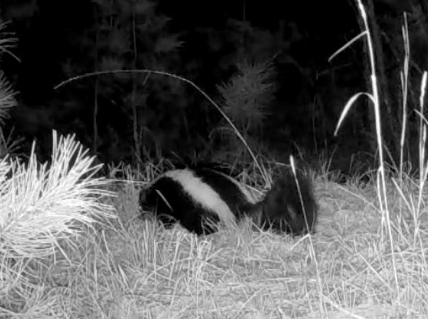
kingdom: Animalia
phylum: Chordata
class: Mammalia
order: Carnivora
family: Mephitidae
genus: Mephitis
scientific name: Mephitis mephitis
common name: Striped skunk
